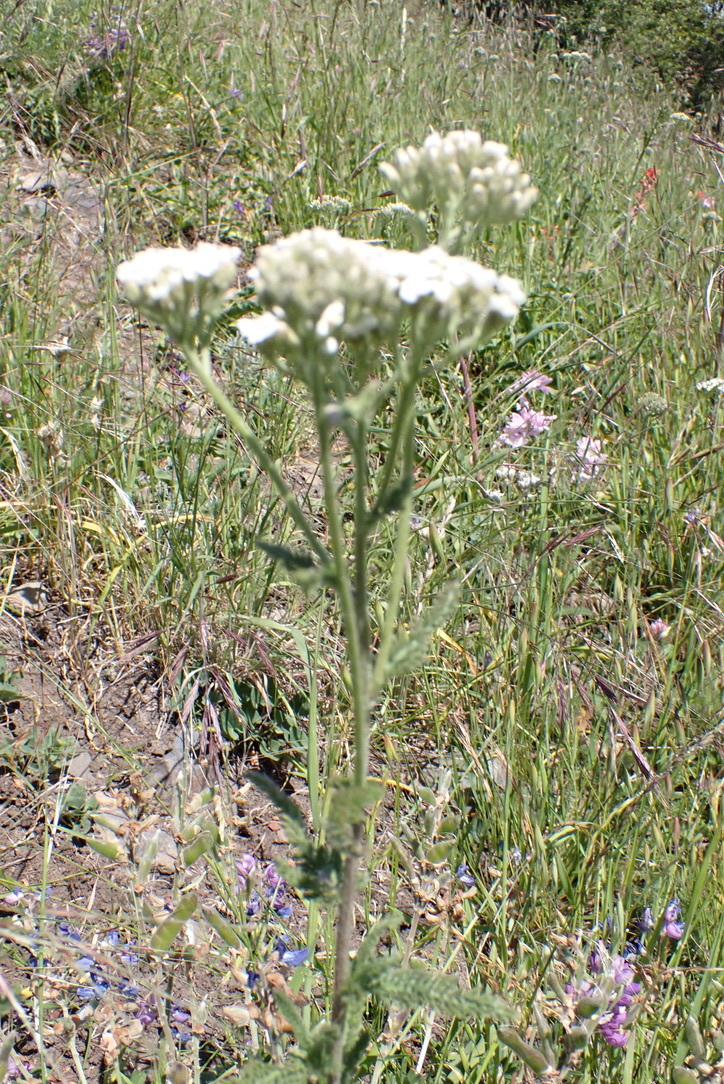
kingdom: Plantae
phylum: Tracheophyta
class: Magnoliopsida
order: Asterales
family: Asteraceae
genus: Achillea
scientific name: Achillea millefolium
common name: Yarrow
